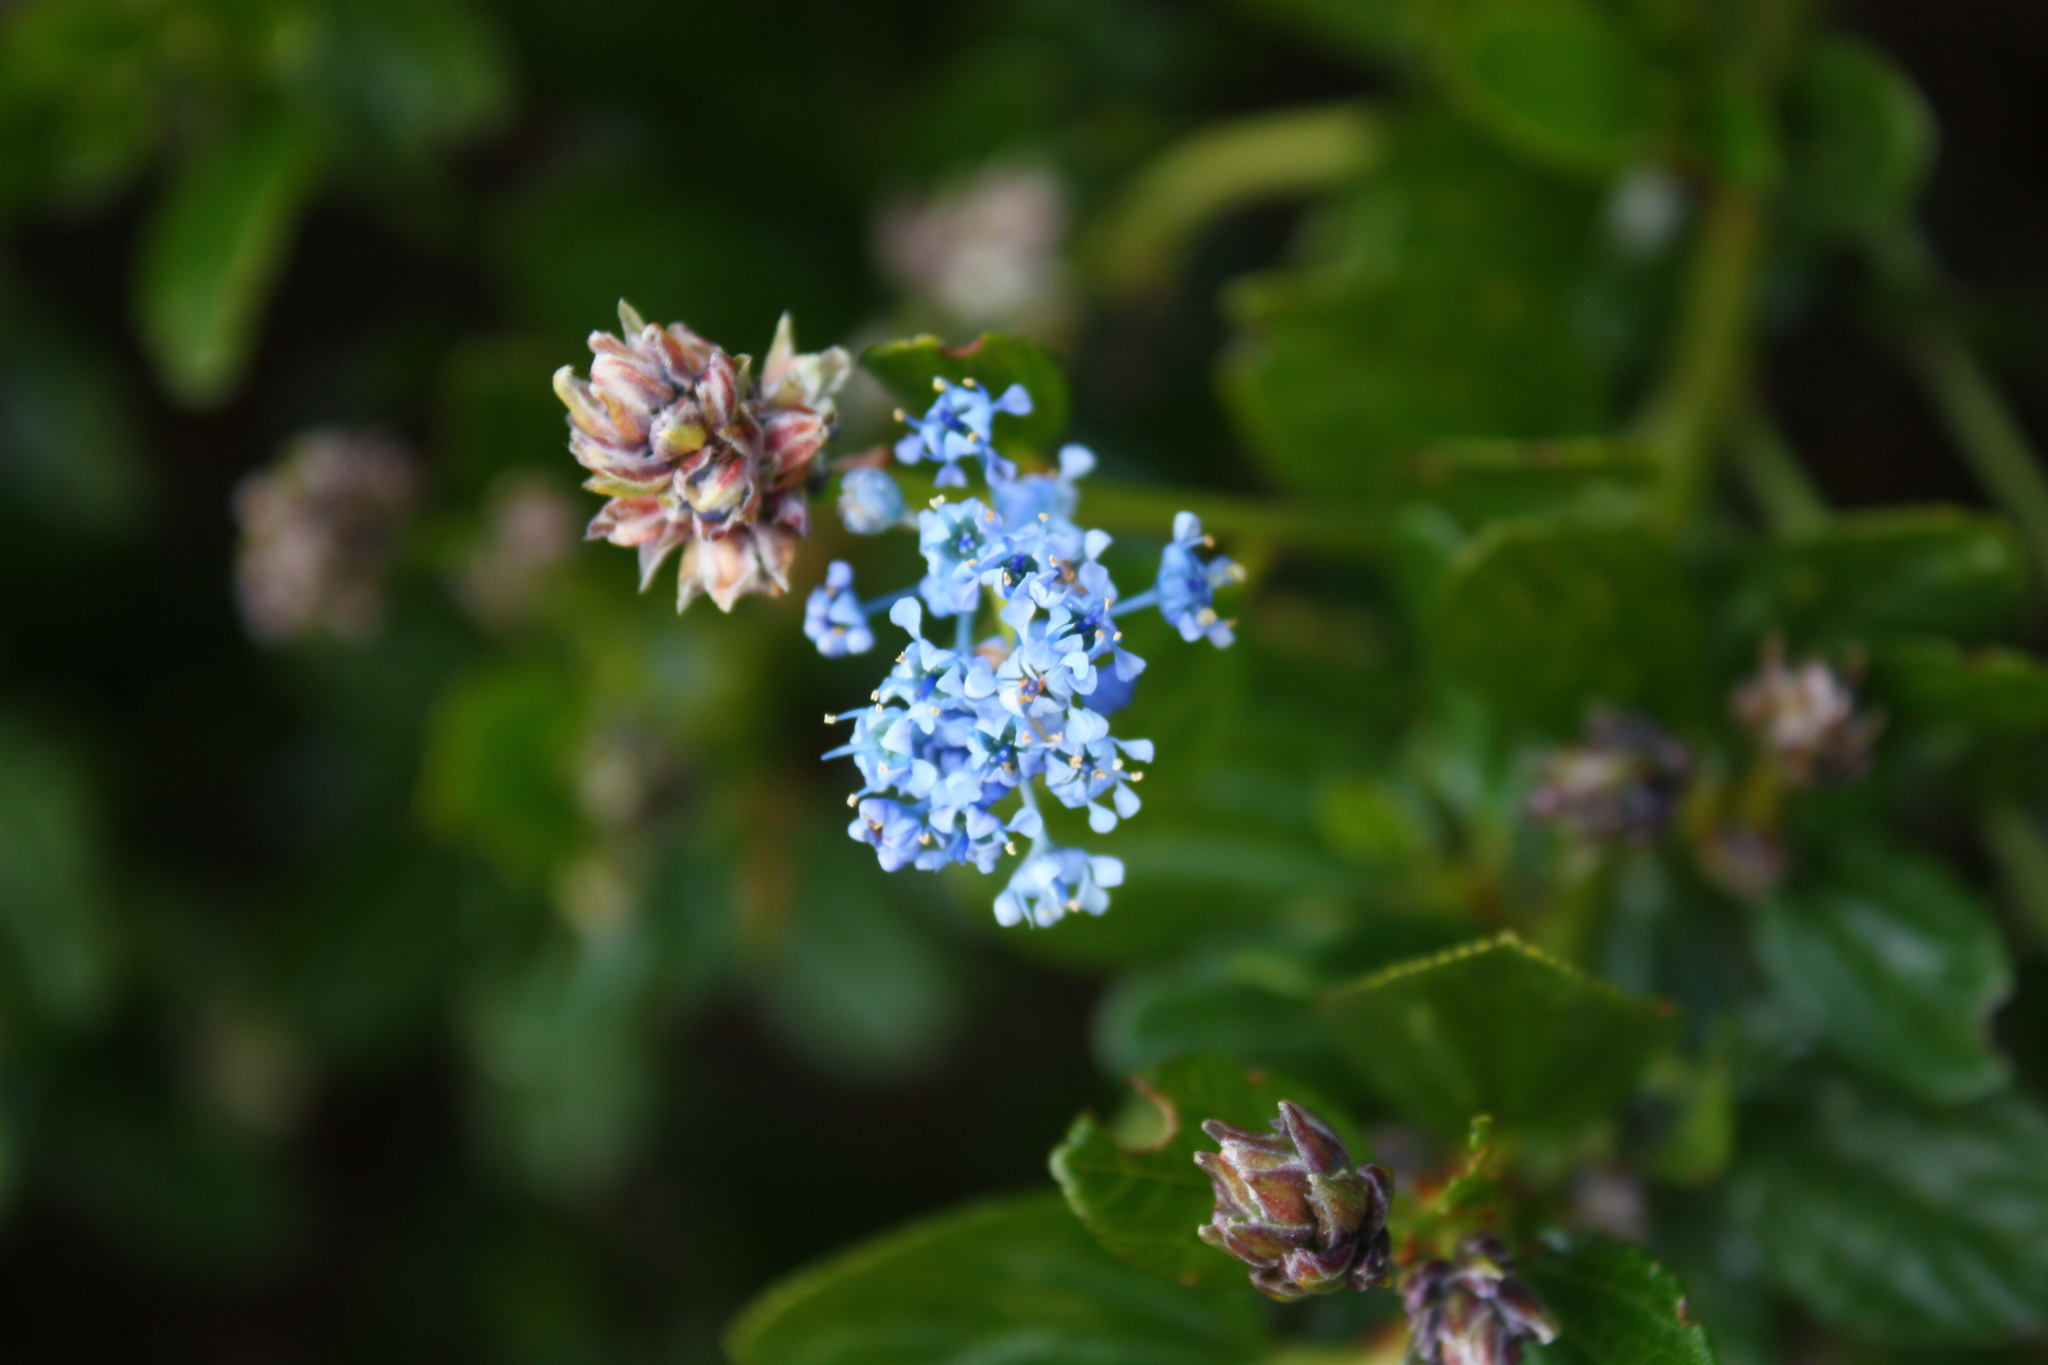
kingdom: Plantae
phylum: Tracheophyta
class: Magnoliopsida
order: Rosales
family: Rhamnaceae
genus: Ceanothus
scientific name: Ceanothus thyrsiflorus
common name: California-lilac
